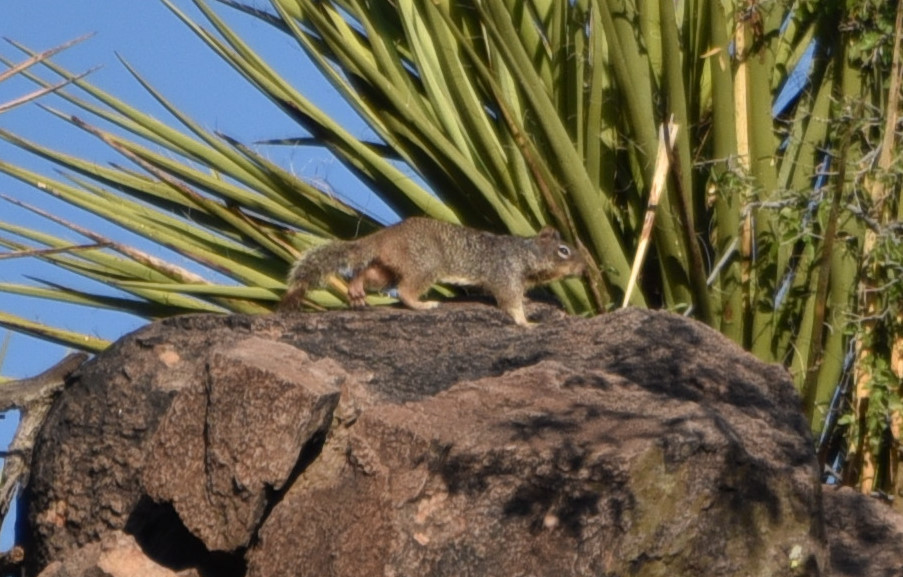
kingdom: Animalia
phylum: Chordata
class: Mammalia
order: Rodentia
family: Sciuridae
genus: Otospermophilus
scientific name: Otospermophilus variegatus
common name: Rock squirrel
